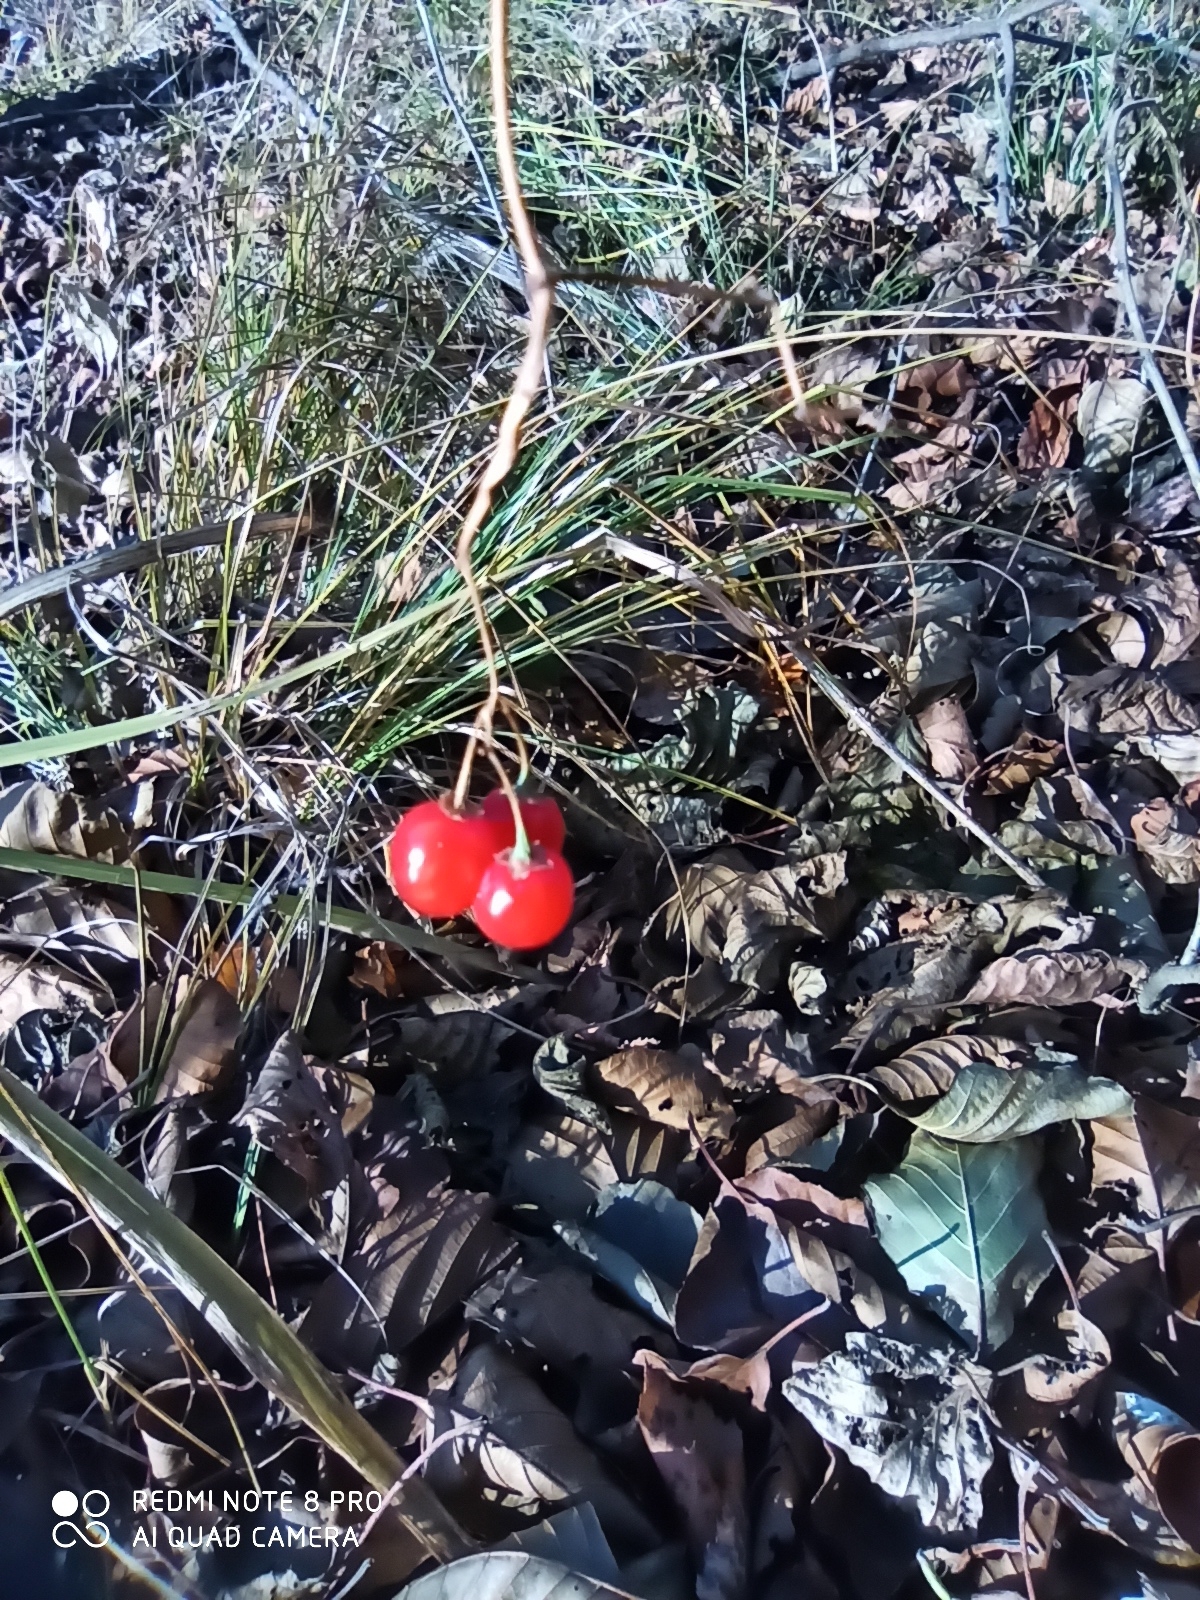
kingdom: Plantae
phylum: Tracheophyta
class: Magnoliopsida
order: Solanales
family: Solanaceae
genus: Solanum
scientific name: Solanum dulcamara
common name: Climbing nightshade
